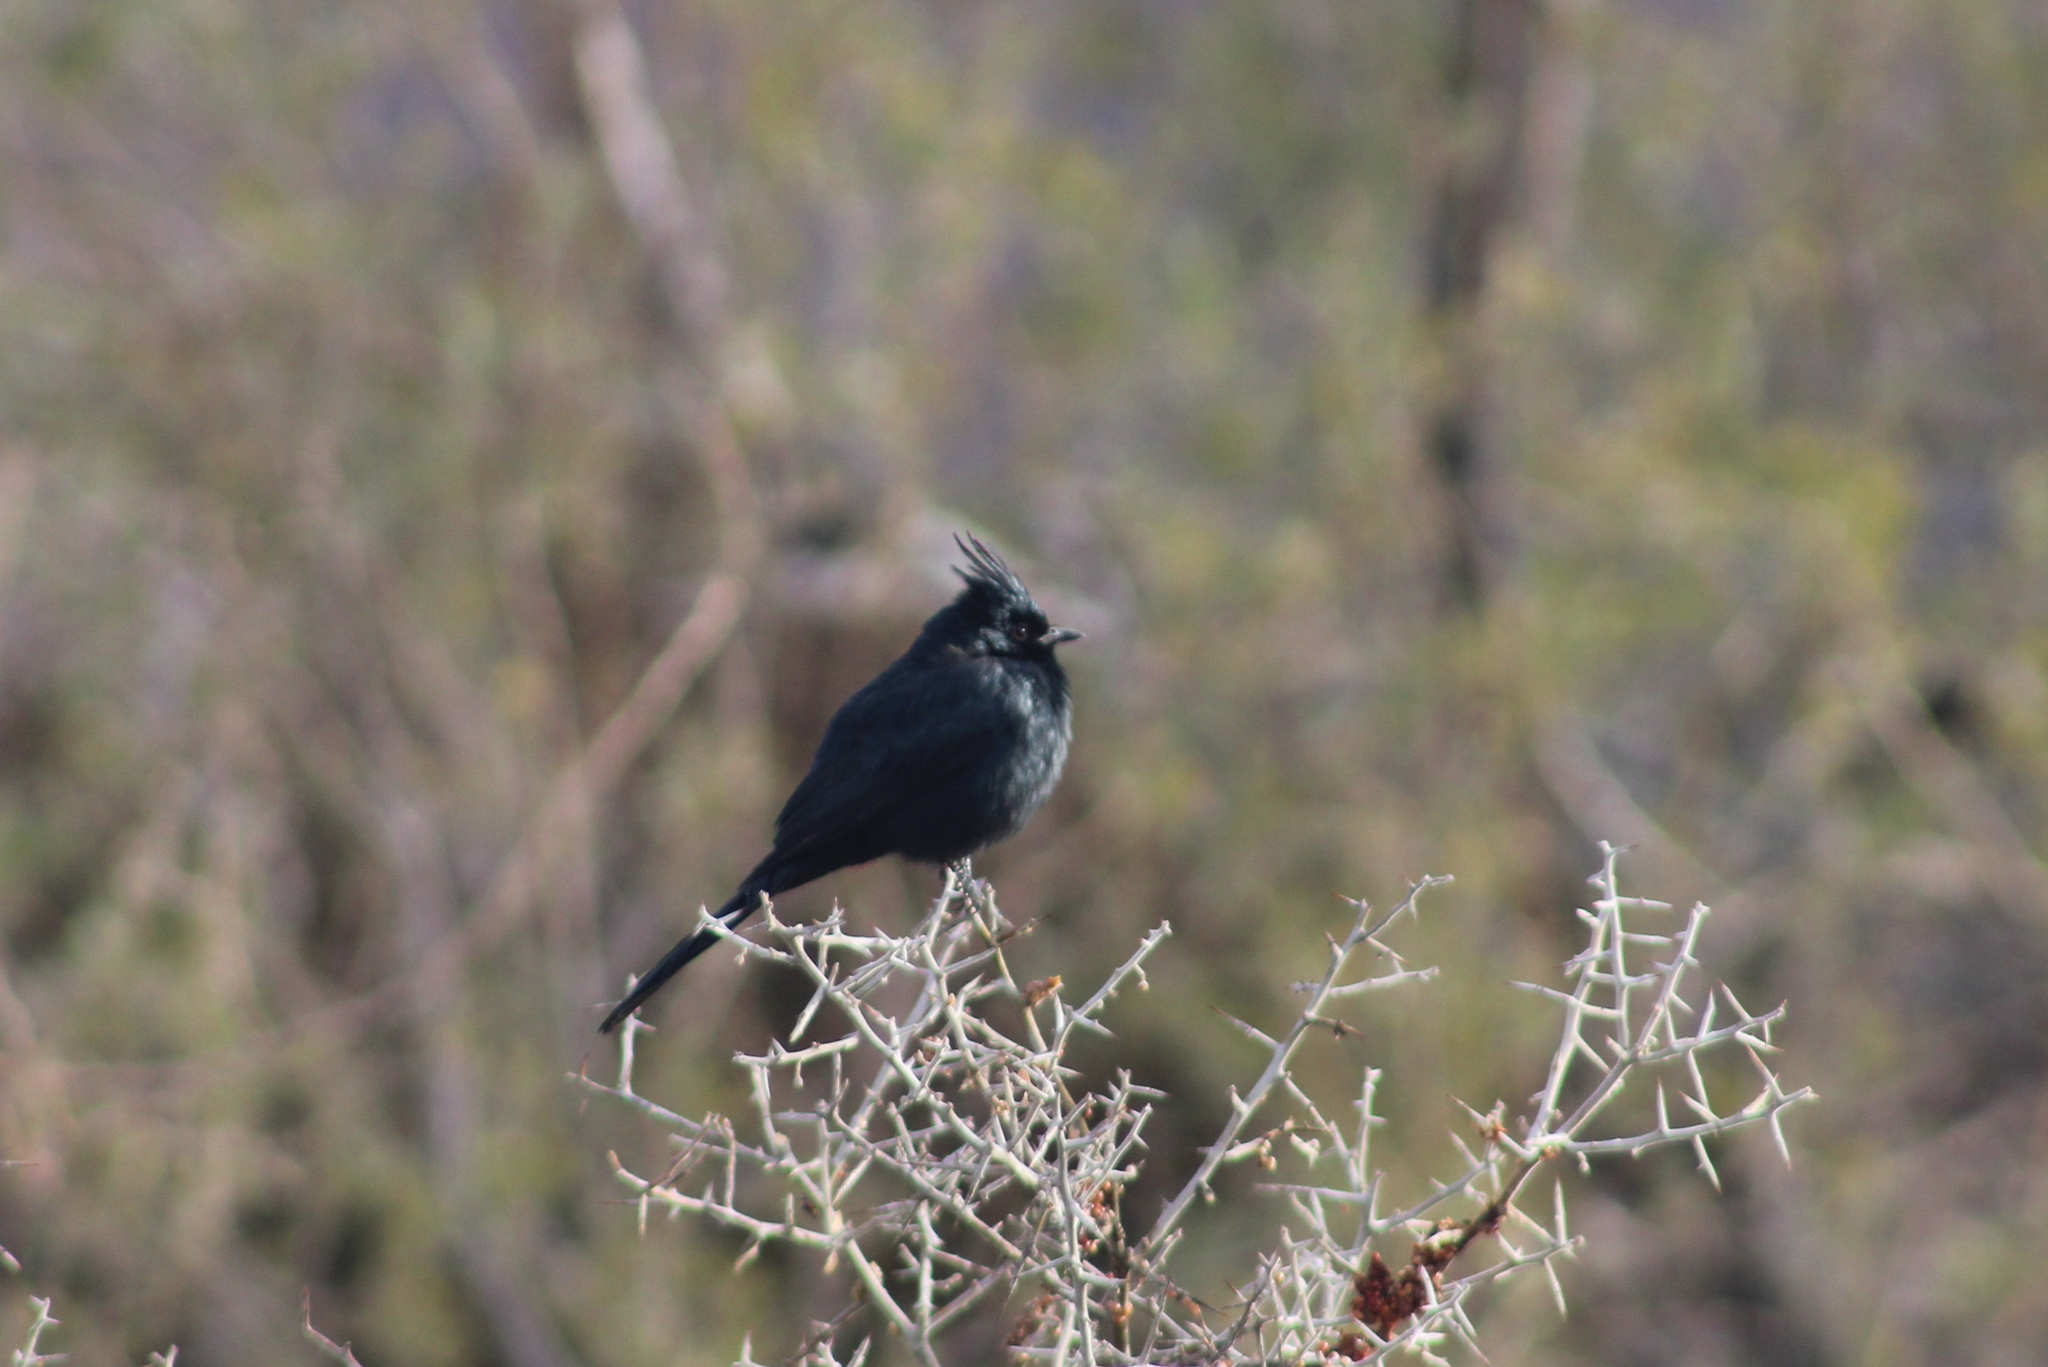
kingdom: Animalia
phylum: Chordata
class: Aves
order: Passeriformes
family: Ptilogonatidae
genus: Phainopepla
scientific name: Phainopepla nitens
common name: Phainopepla
